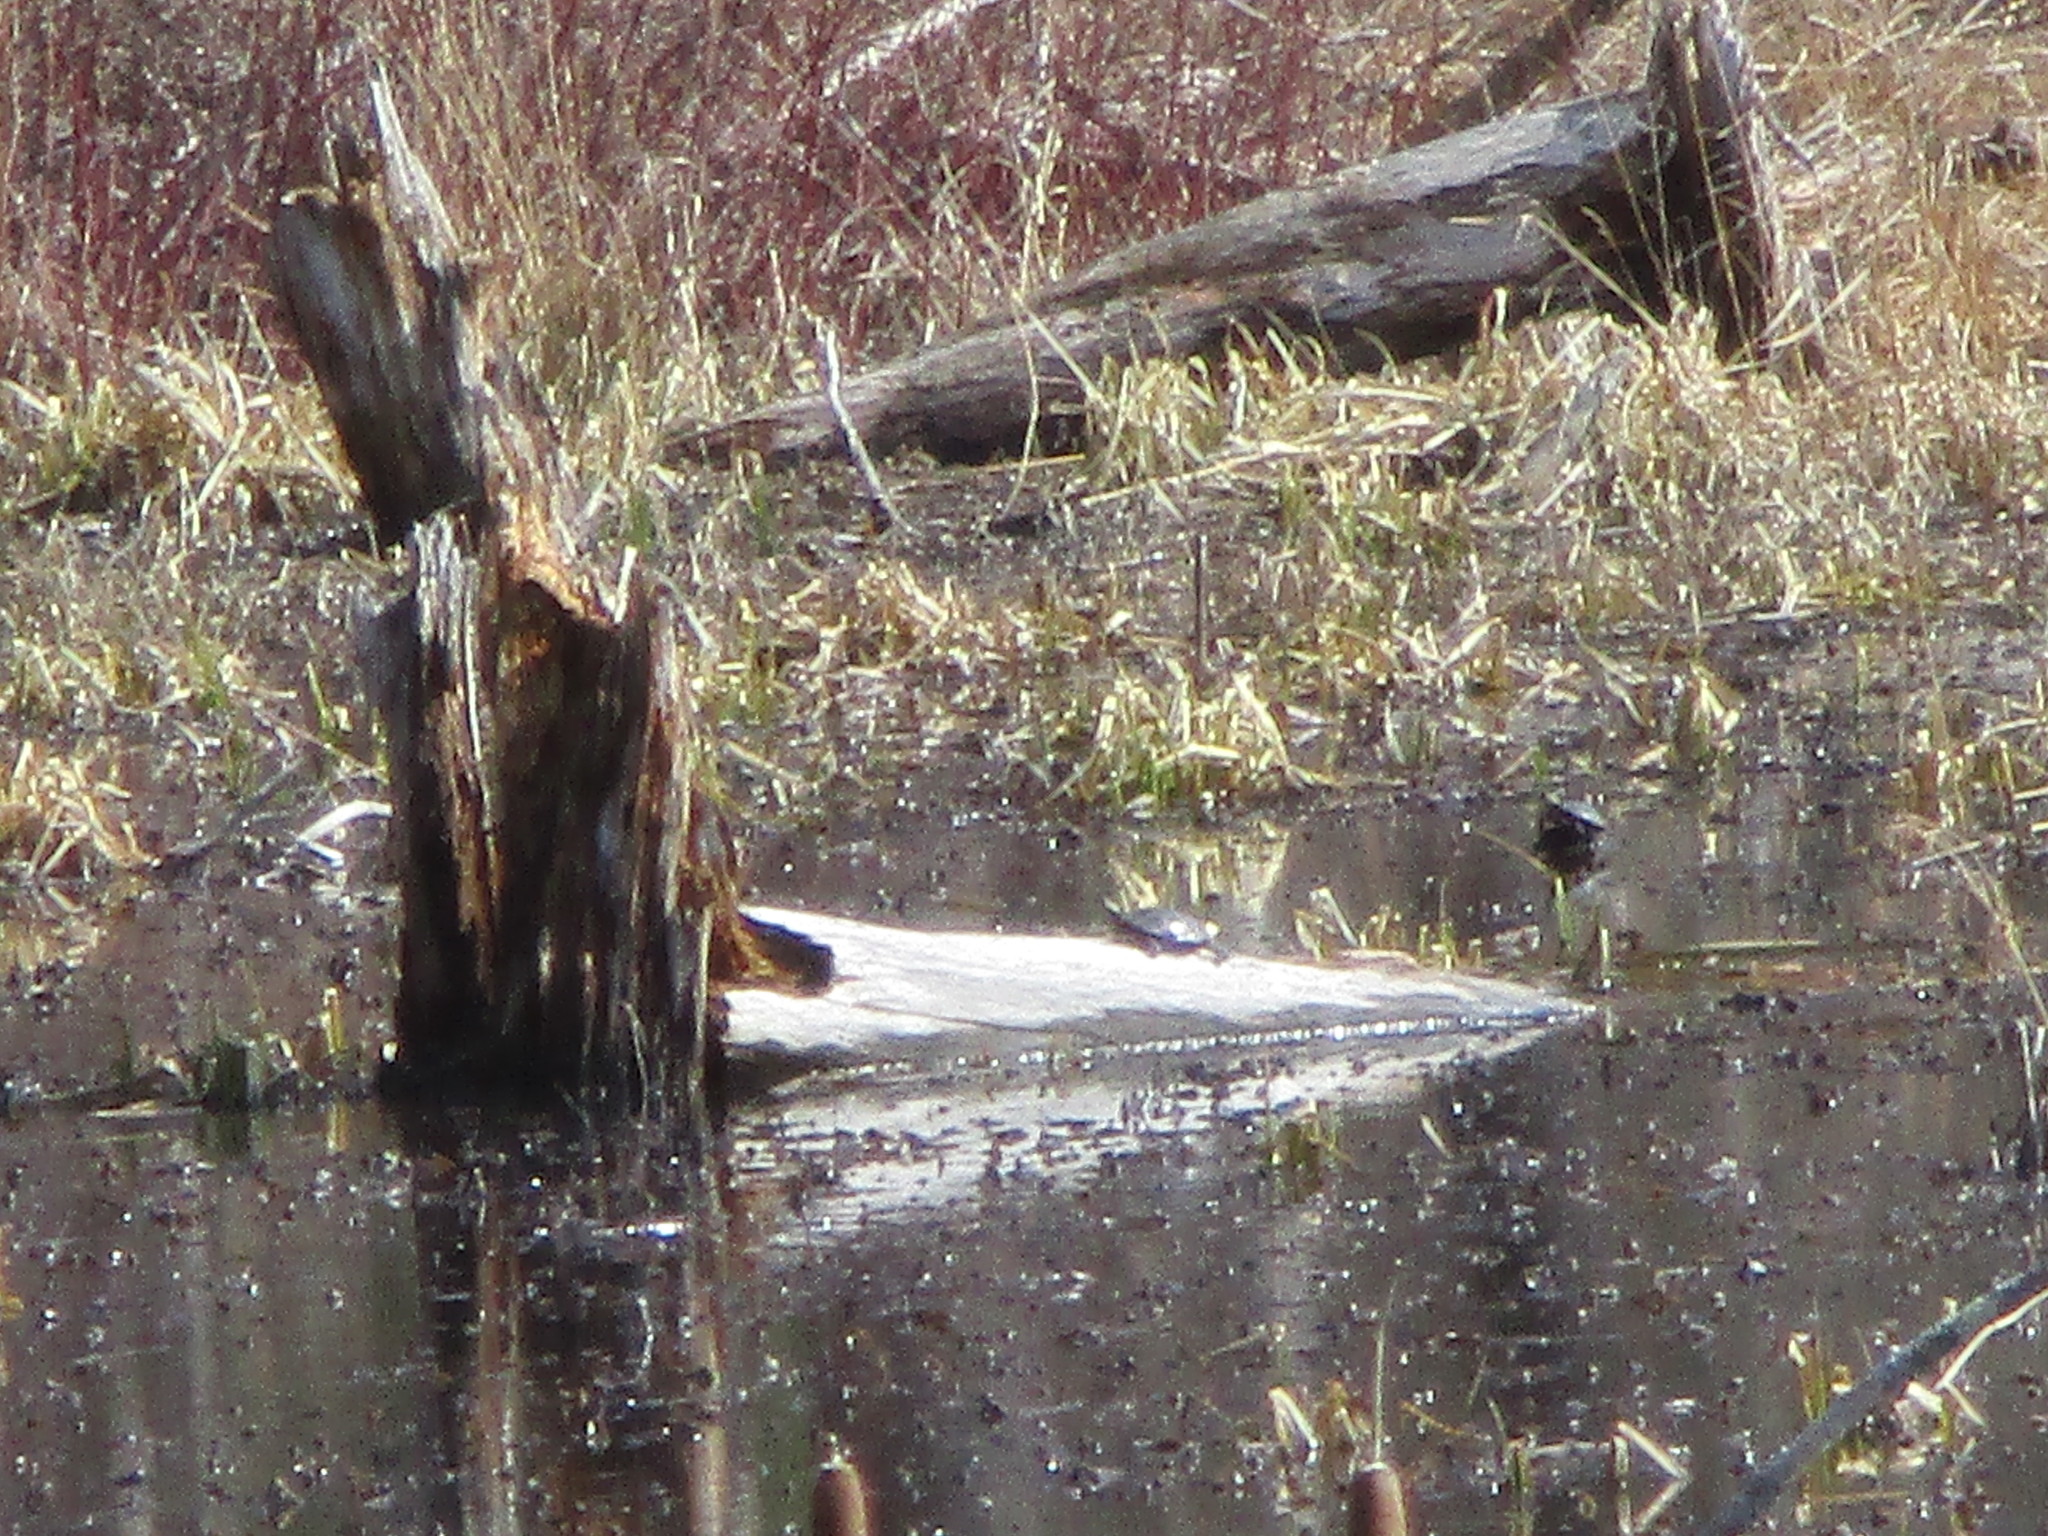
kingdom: Animalia
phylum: Chordata
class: Testudines
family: Emydidae
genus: Chrysemys
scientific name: Chrysemys picta
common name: Painted turtle
